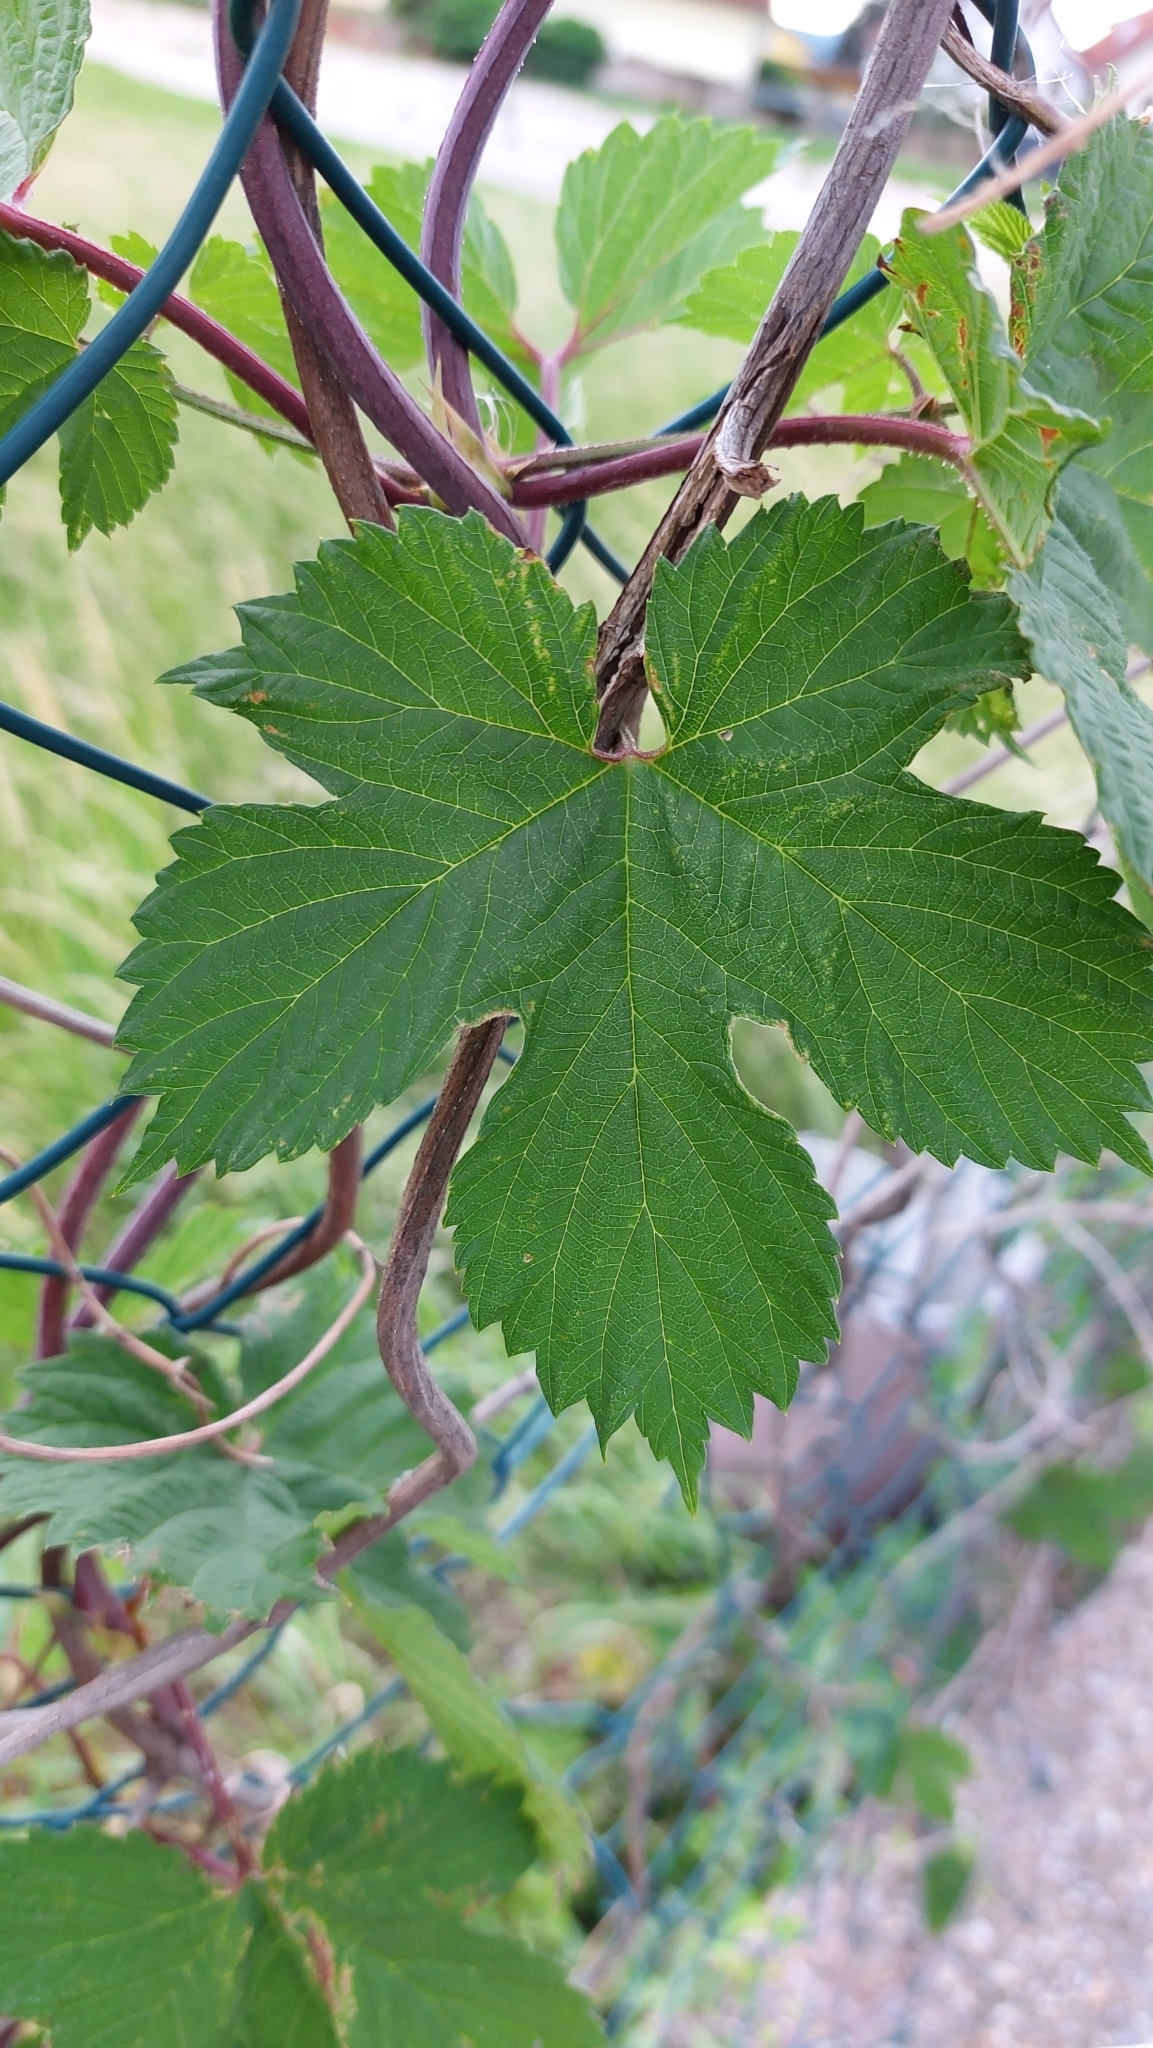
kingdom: Plantae
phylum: Tracheophyta
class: Magnoliopsida
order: Rosales
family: Cannabaceae
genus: Humulus
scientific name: Humulus lupulus
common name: Hop
